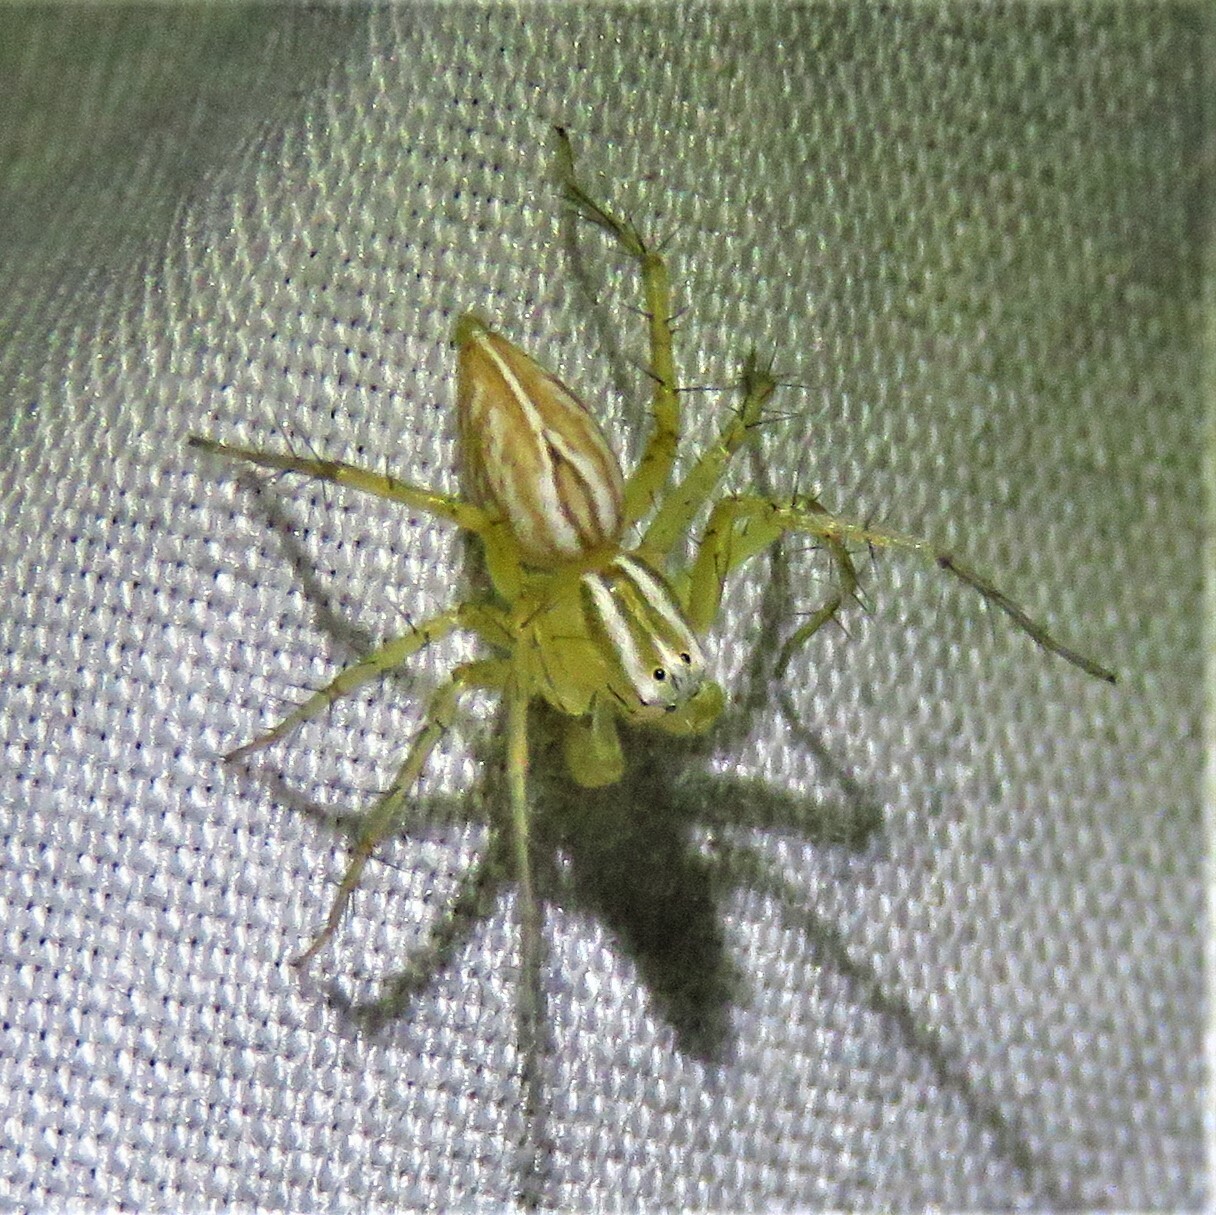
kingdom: Animalia
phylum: Arthropoda
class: Arachnida
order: Araneae
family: Oxyopidae
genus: Oxyopes
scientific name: Oxyopes salticus
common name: Lynx spiders
